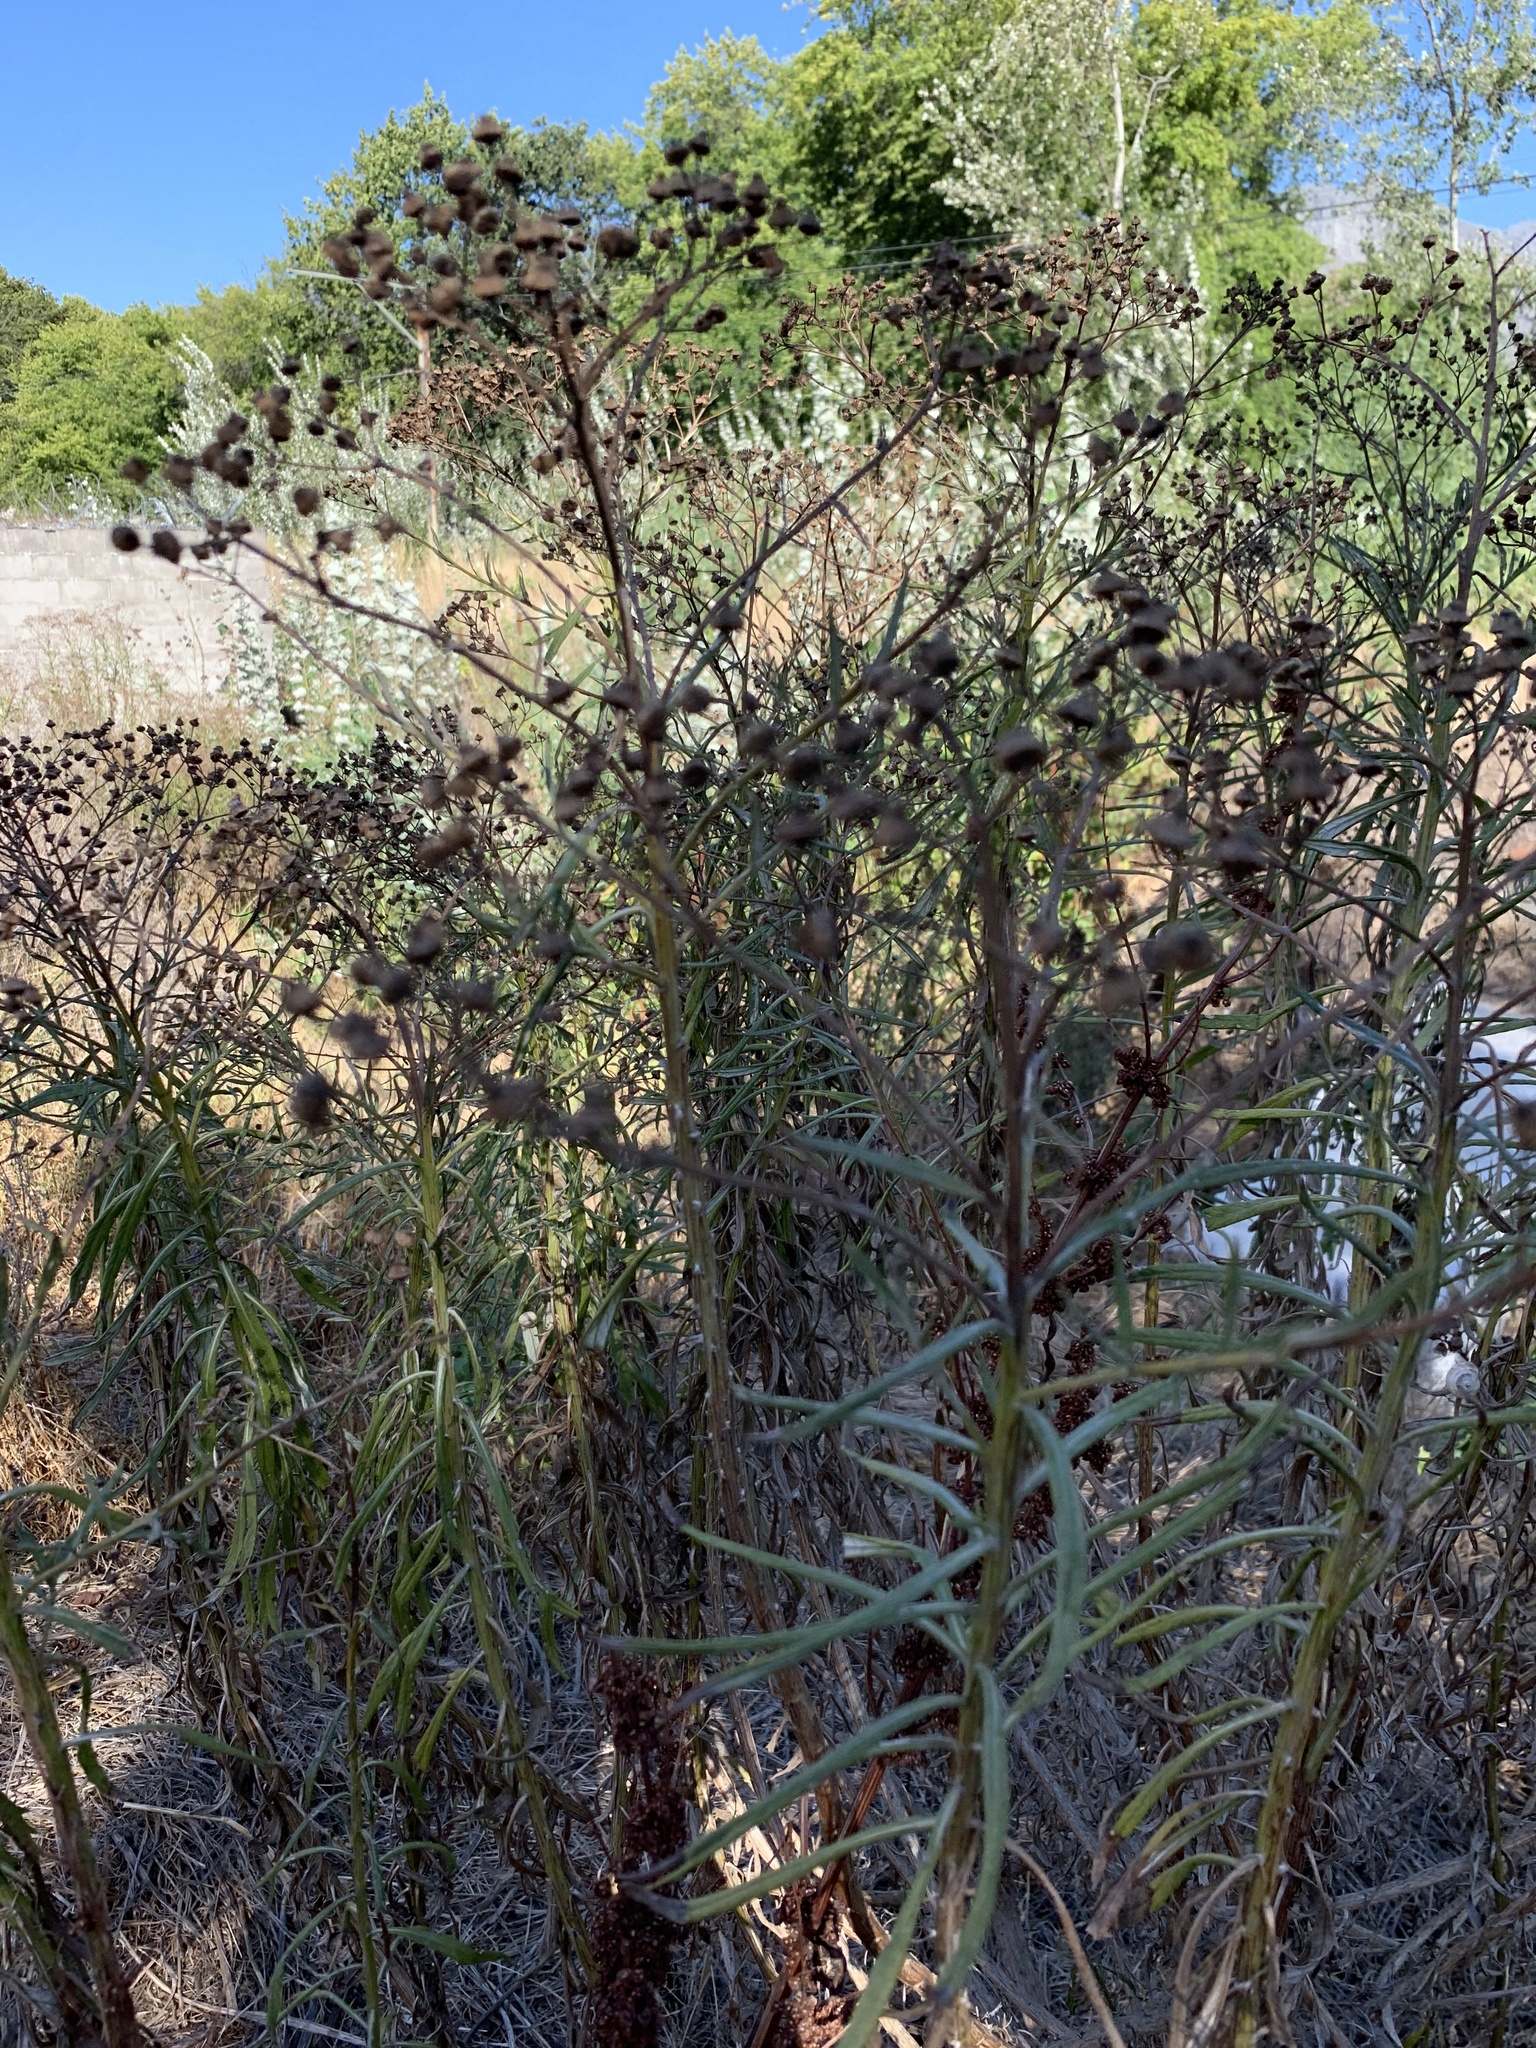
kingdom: Plantae
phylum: Tracheophyta
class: Magnoliopsida
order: Asterales
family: Asteraceae
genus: Senecio
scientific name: Senecio pterophorus
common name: Shoddy ragwort
